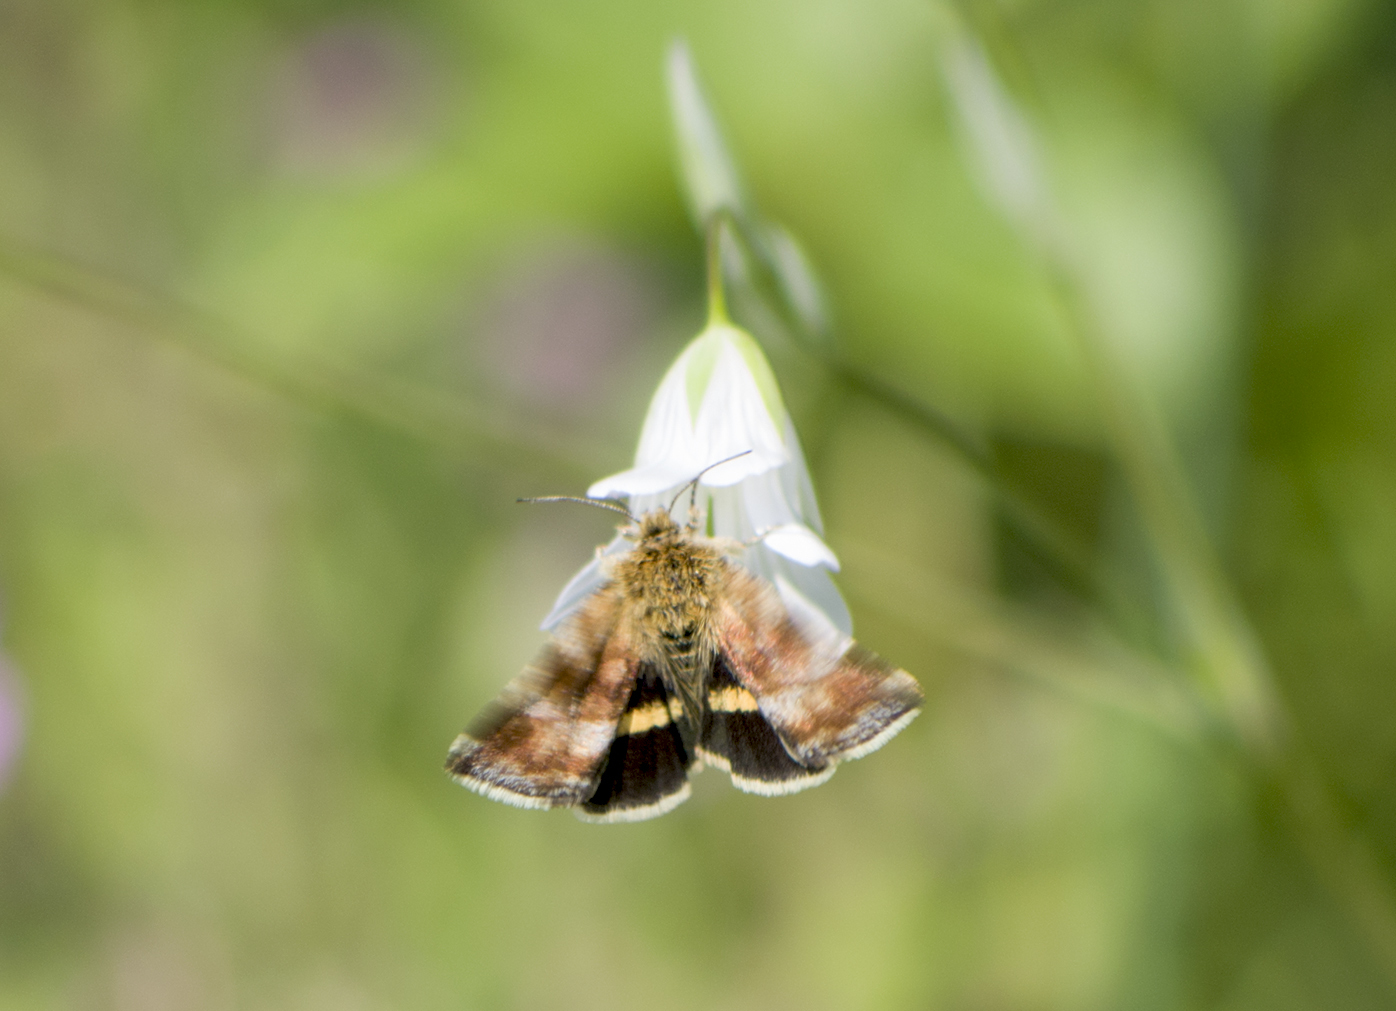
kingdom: Animalia
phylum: Arthropoda
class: Insecta
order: Lepidoptera
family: Noctuidae
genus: Panemeria
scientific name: Panemeria tenebrata
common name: Small yellow underwing
